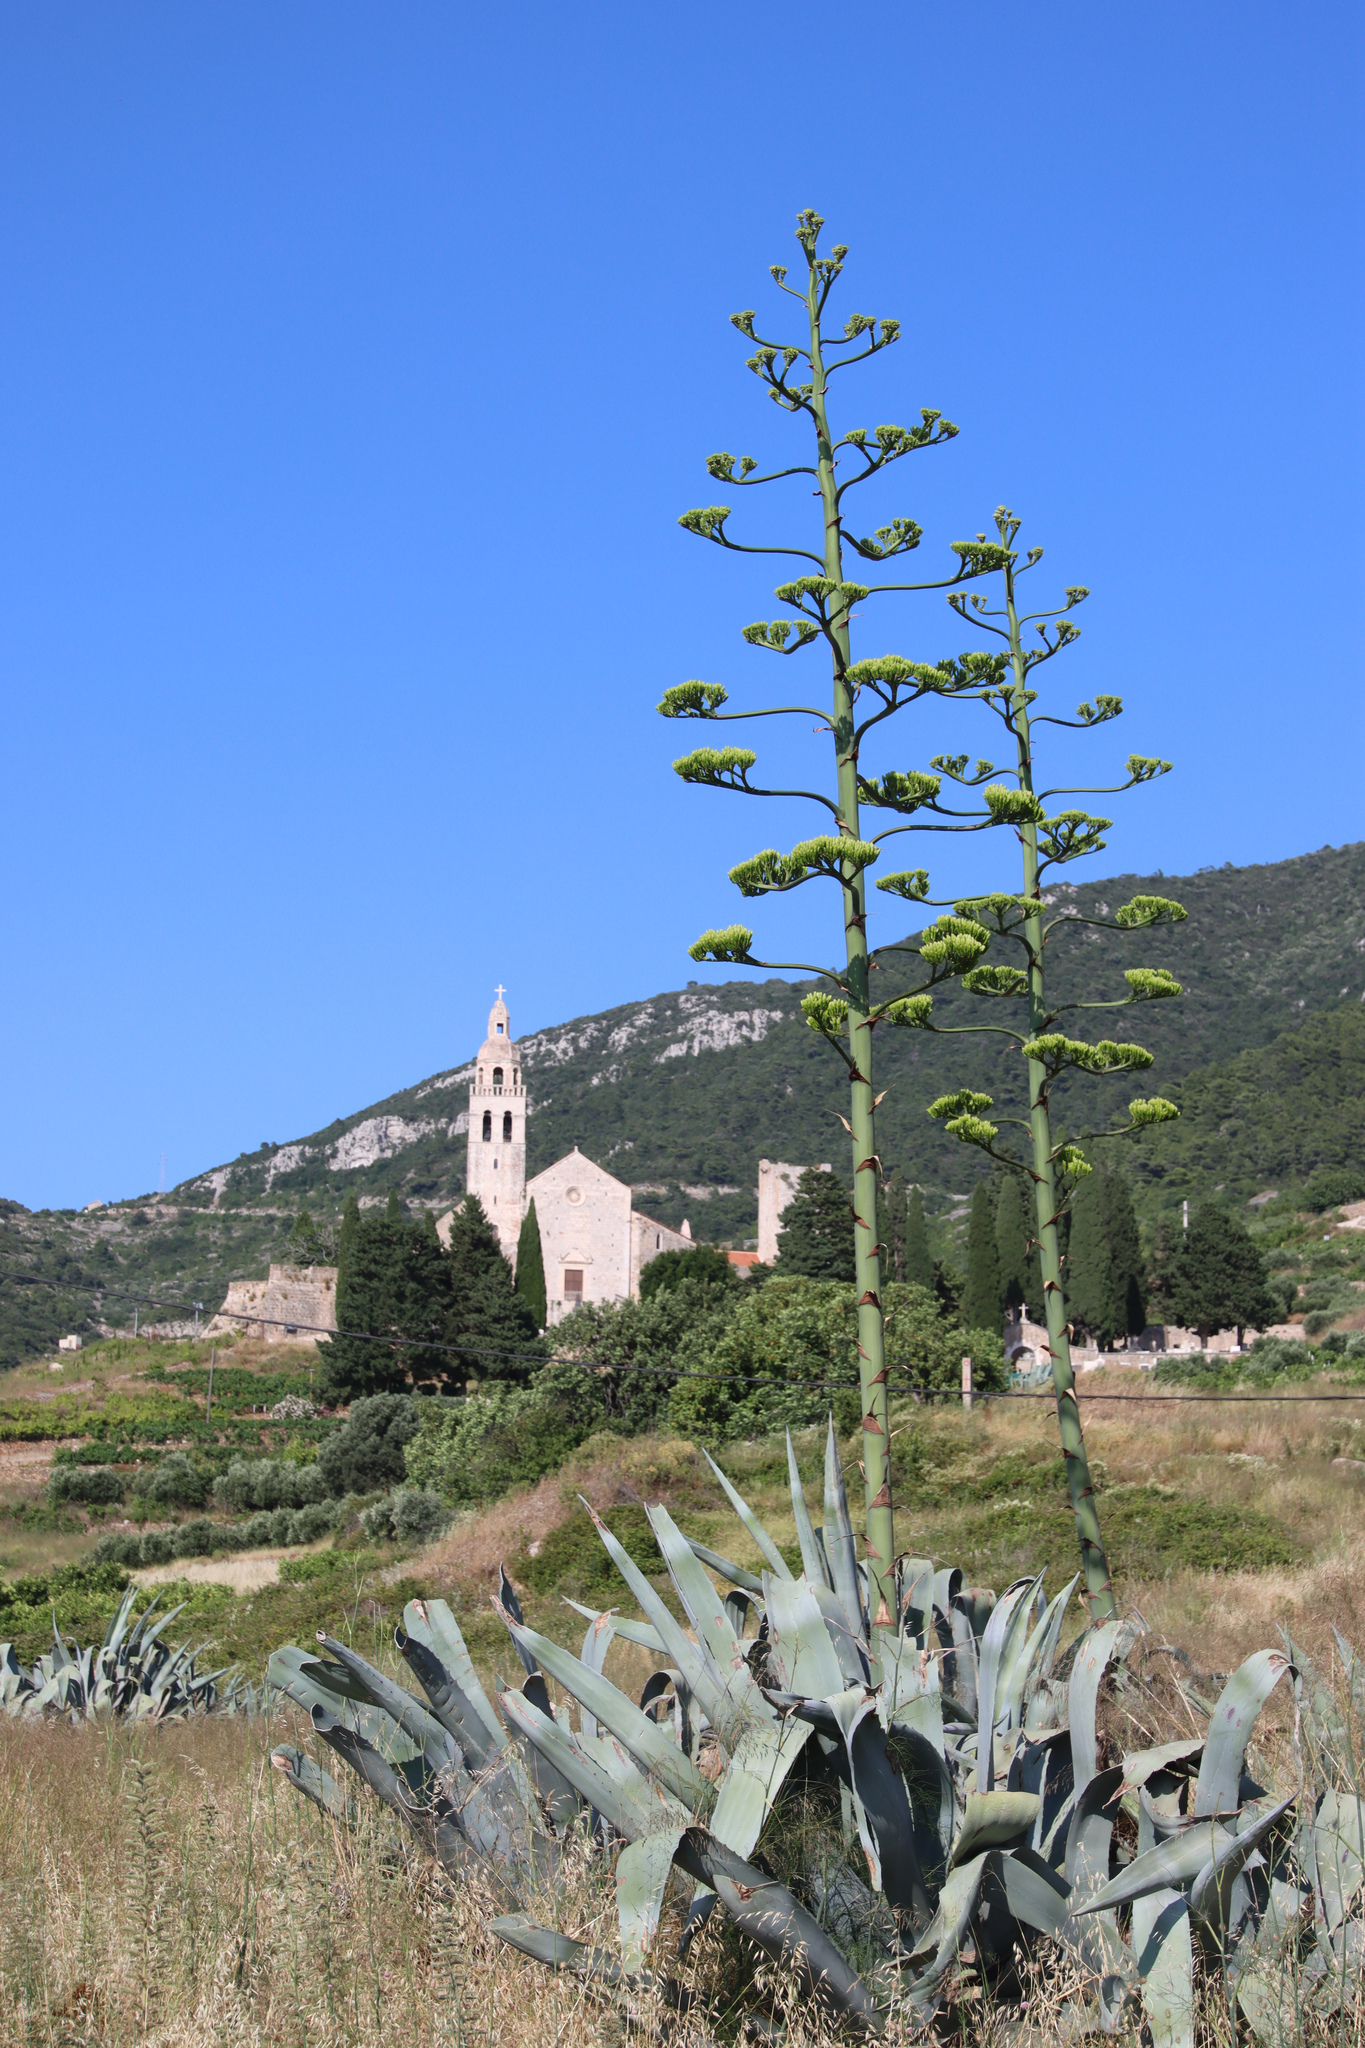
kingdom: Plantae
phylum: Tracheophyta
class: Liliopsida
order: Asparagales
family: Asparagaceae
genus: Agave
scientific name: Agave americana
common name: Centuryplant
